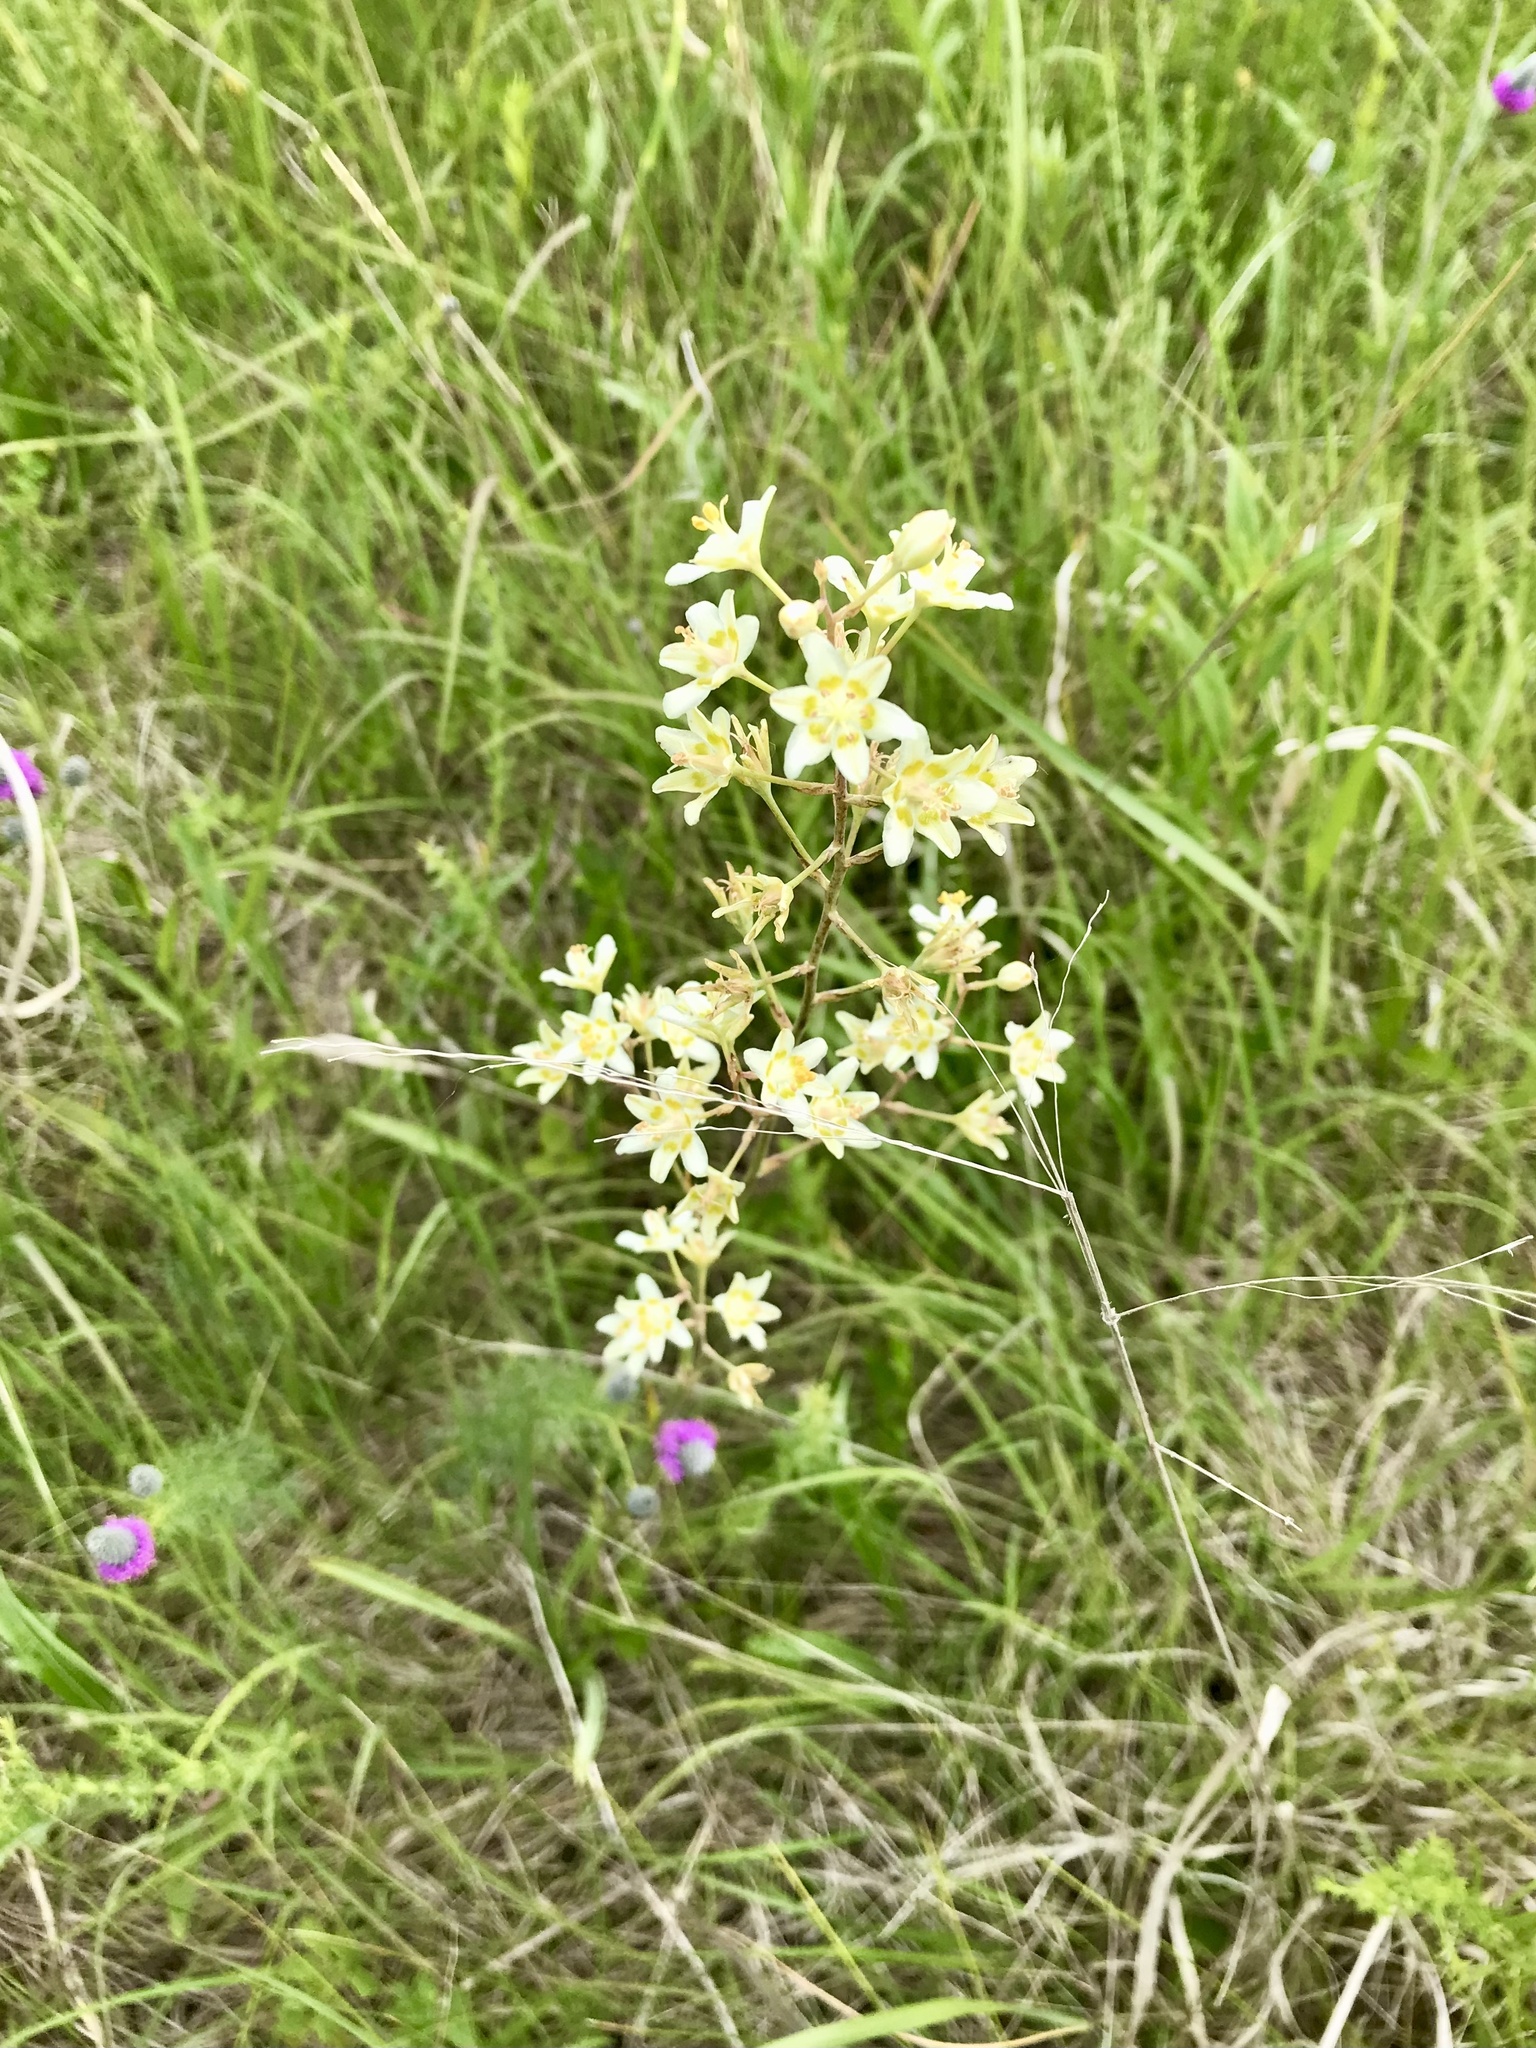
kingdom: Plantae
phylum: Tracheophyta
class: Liliopsida
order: Liliales
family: Melanthiaceae
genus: Anticlea
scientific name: Anticlea elegans
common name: Mountain death camas
